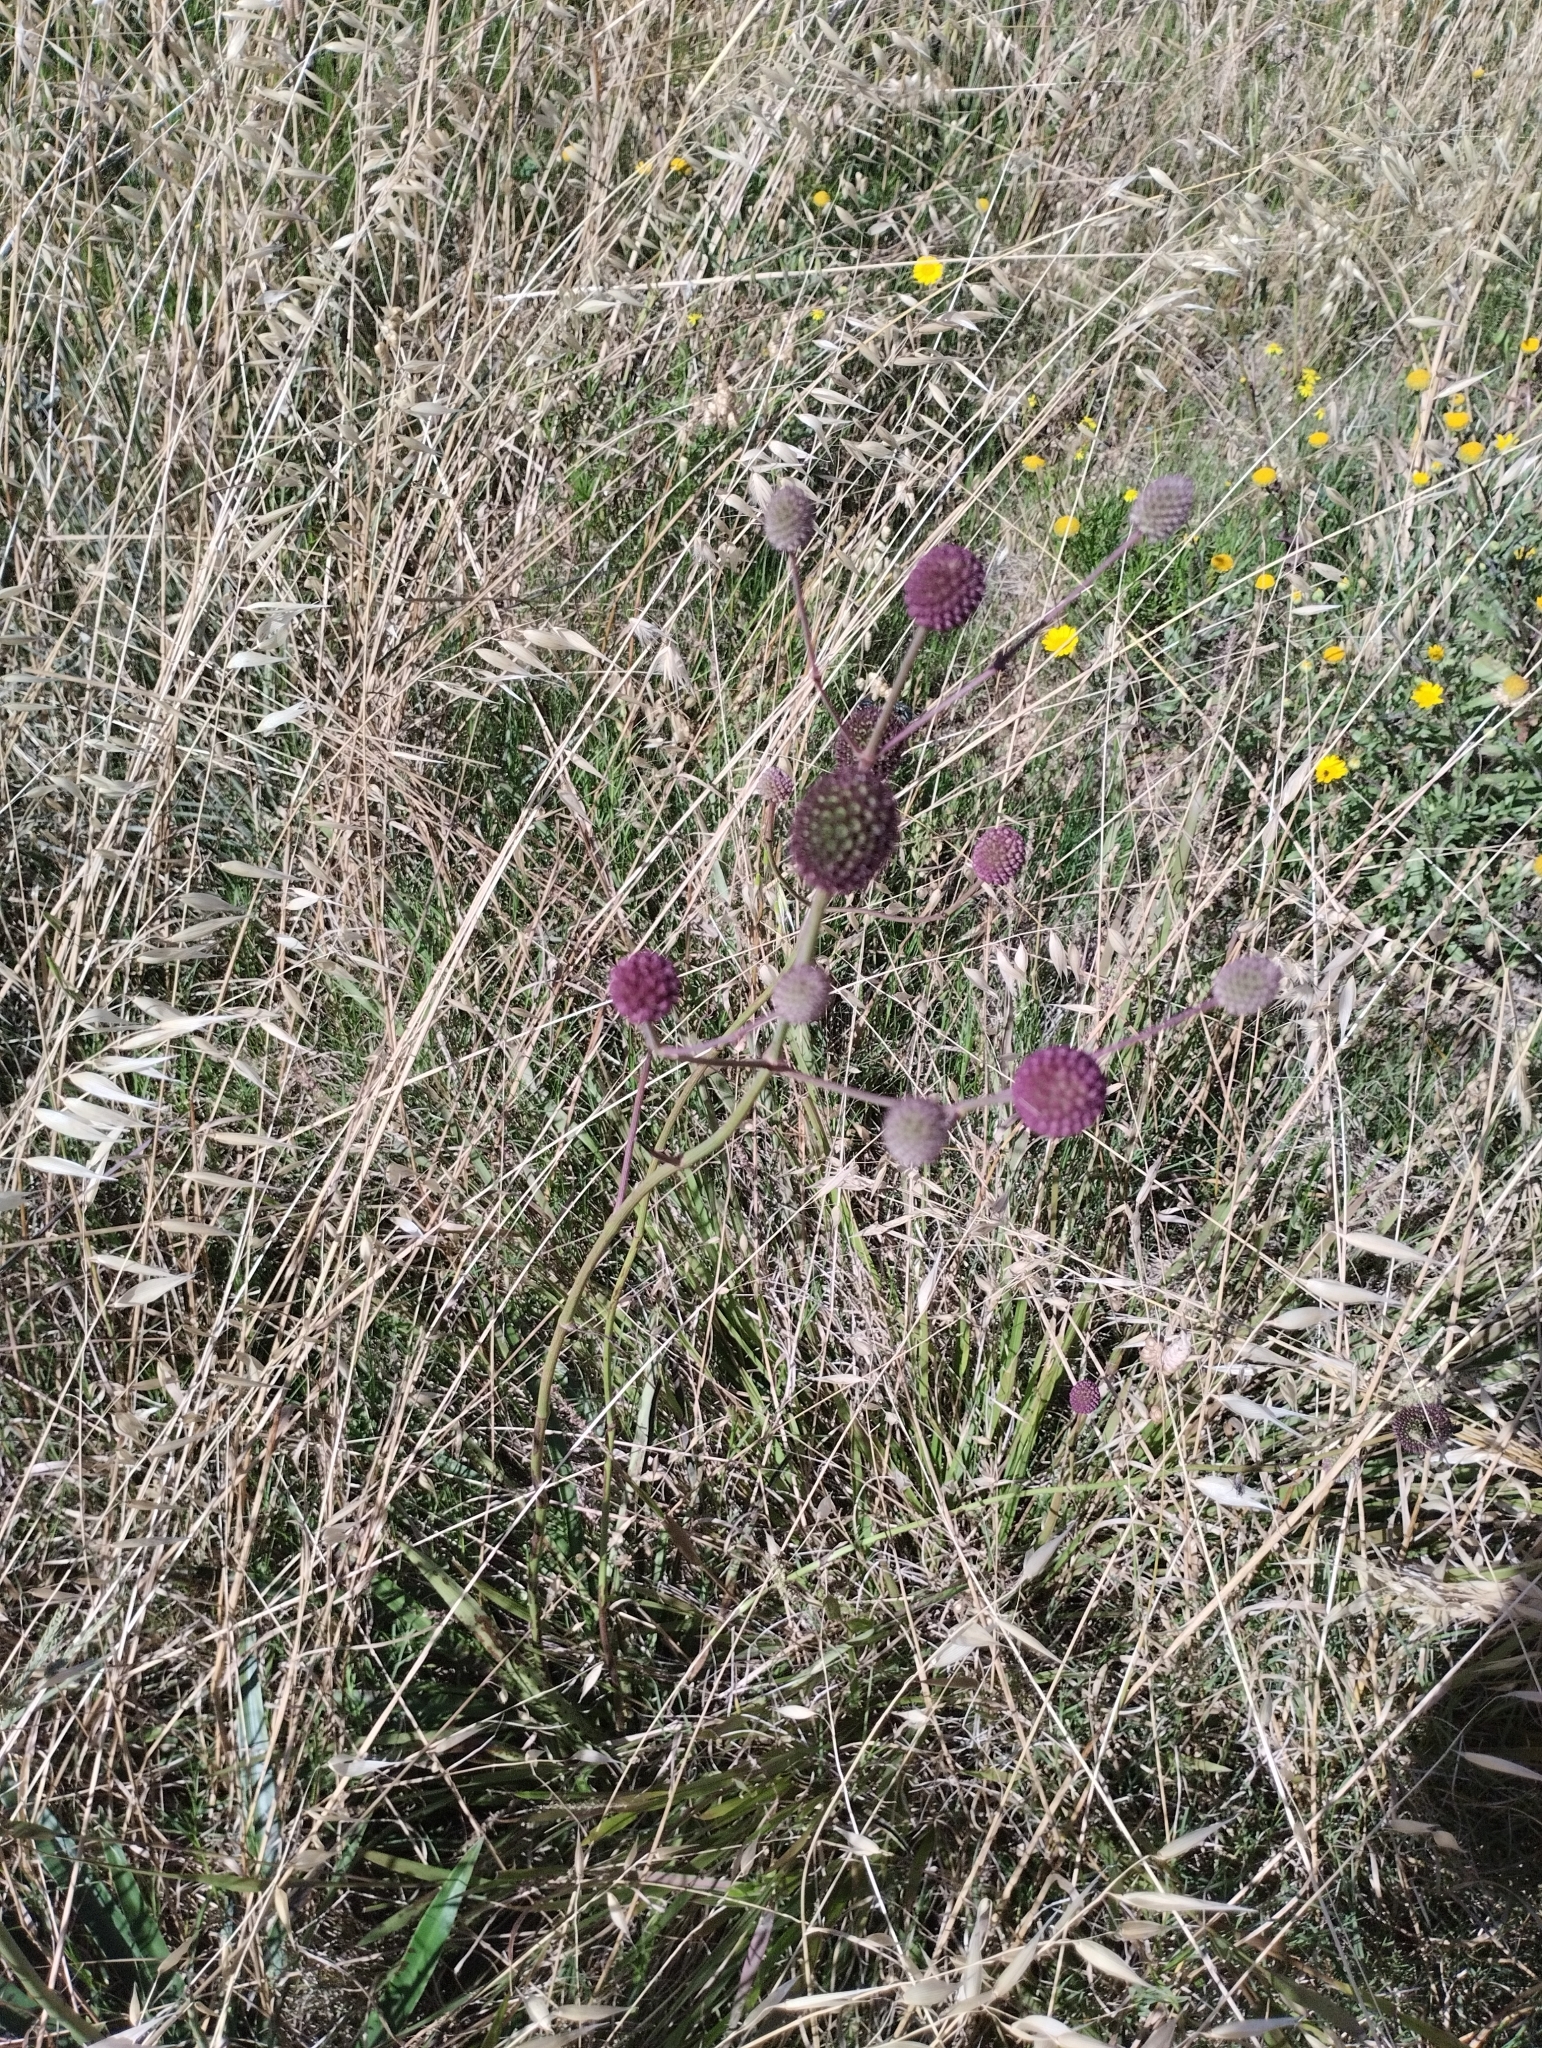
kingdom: Plantae
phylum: Tracheophyta
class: Magnoliopsida
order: Apiales
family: Apiaceae
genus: Eryngium
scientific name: Eryngium sanguisorba
